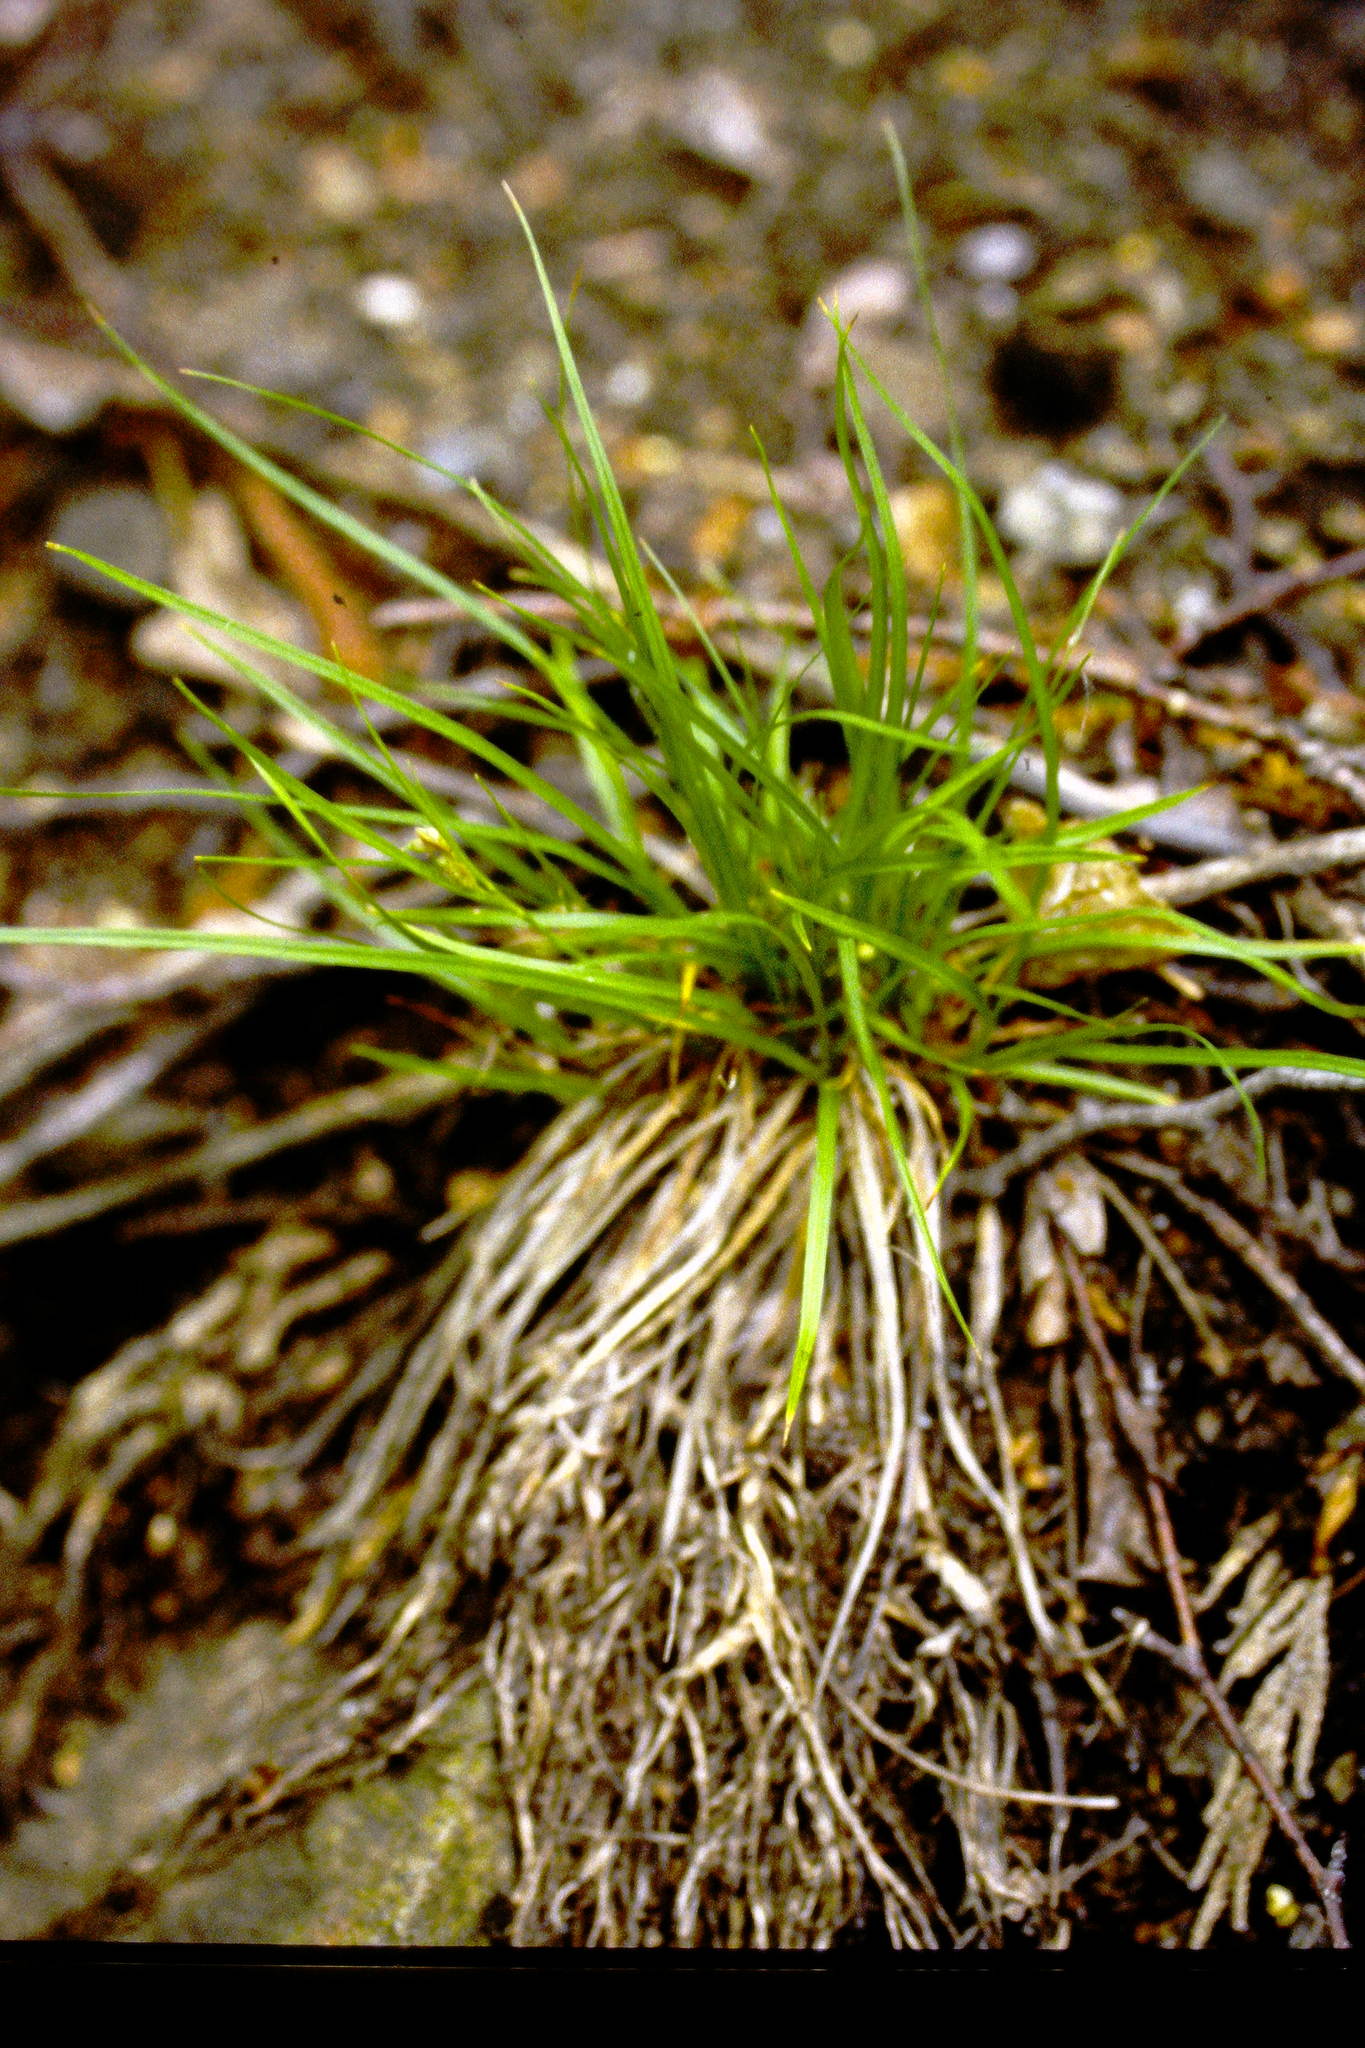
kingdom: Plantae
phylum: Tracheophyta
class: Liliopsida
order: Poales
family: Cyperaceae
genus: Carex
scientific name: Carex rossii
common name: Ross' sedge
